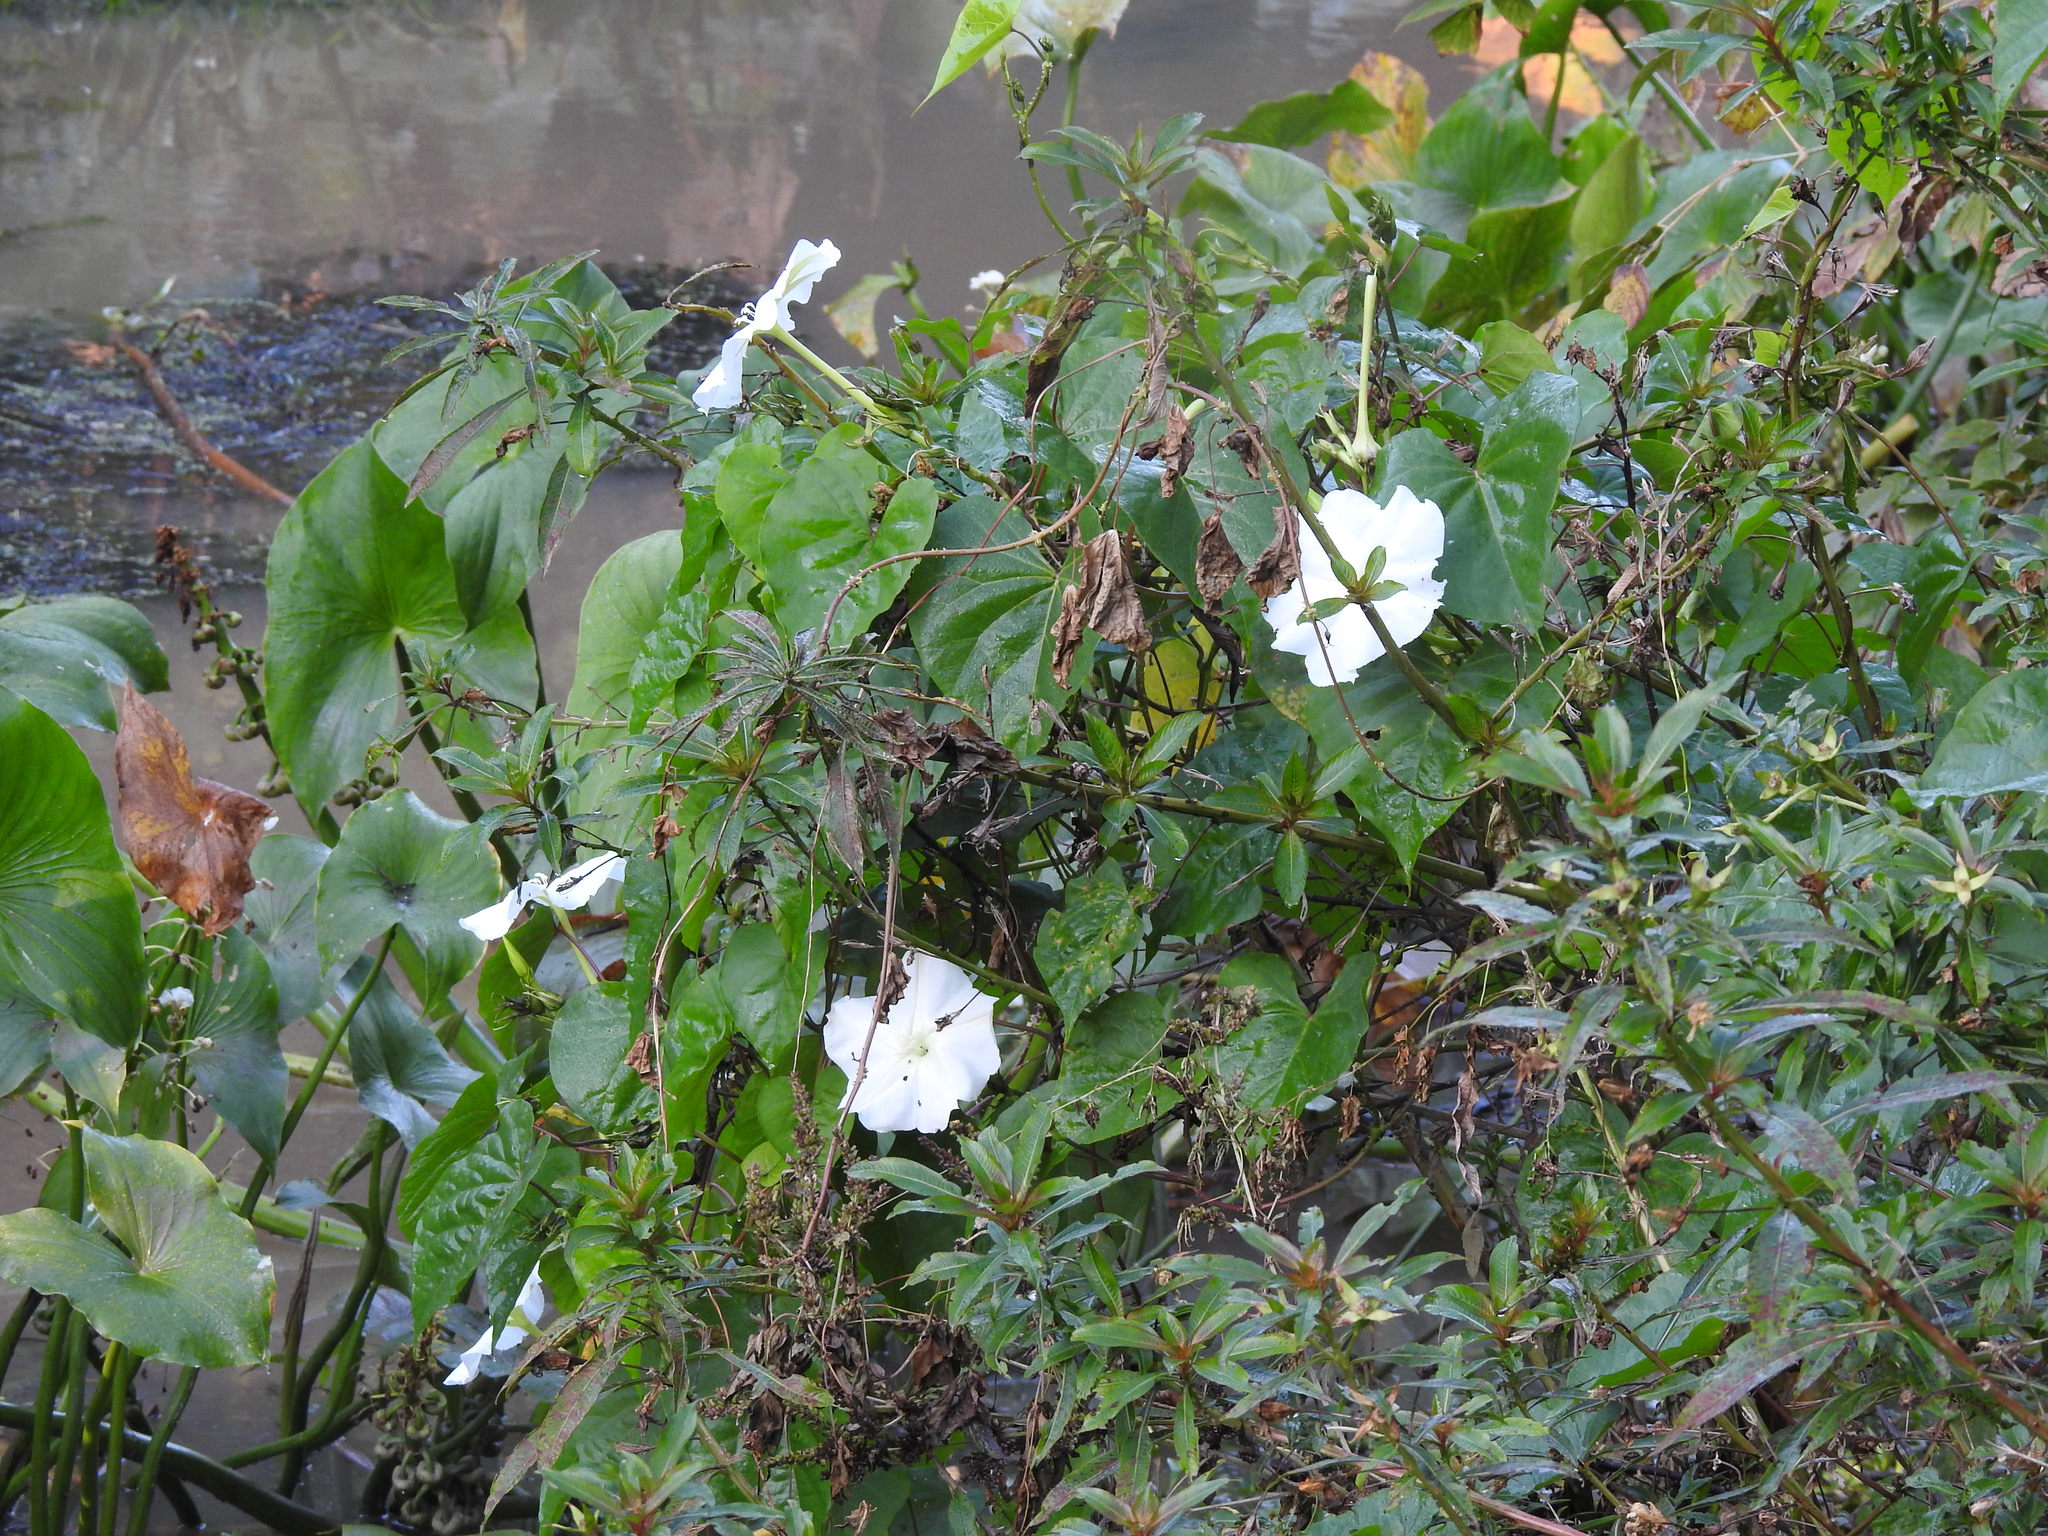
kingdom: Plantae
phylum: Tracheophyta
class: Magnoliopsida
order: Solanales
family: Convolvulaceae
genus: Ipomoea
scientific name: Ipomoea alba
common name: Moonflower
